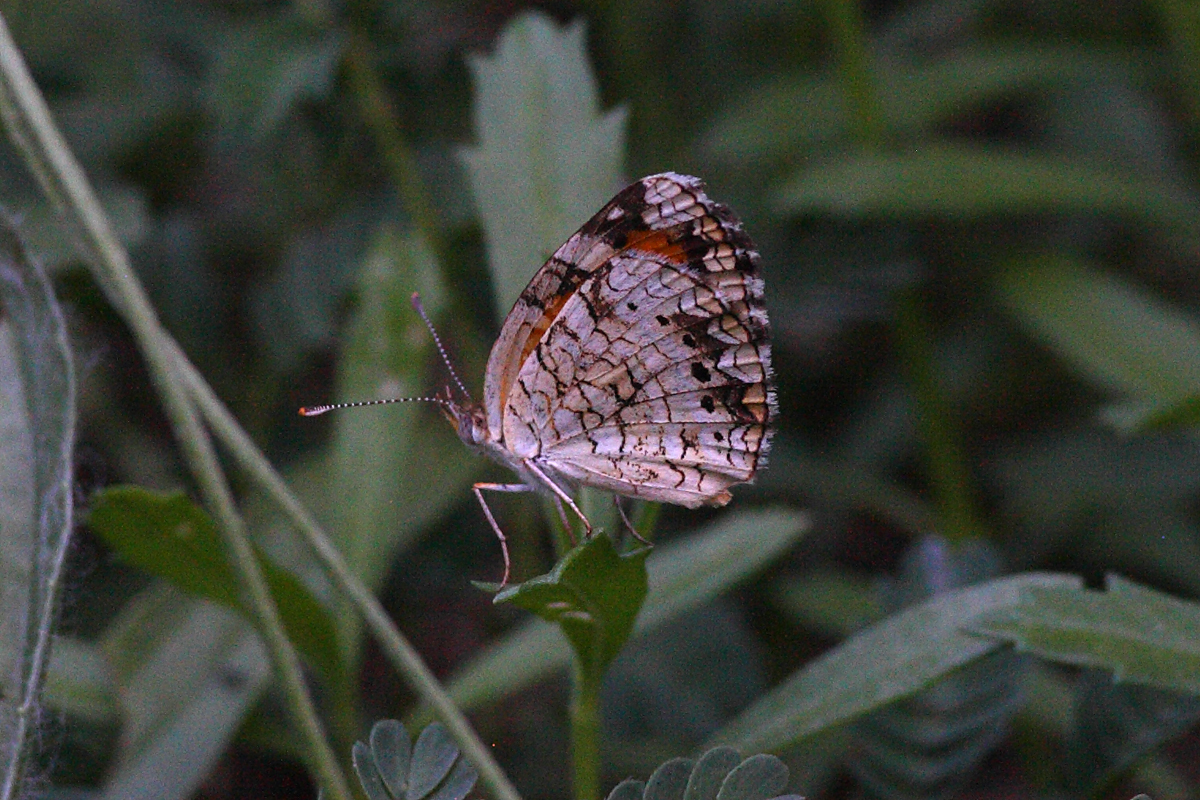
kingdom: Animalia
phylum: Arthropoda
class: Insecta
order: Lepidoptera
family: Nymphalidae
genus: Phyciodes
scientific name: Phyciodes phaon
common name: Phaon crescent
